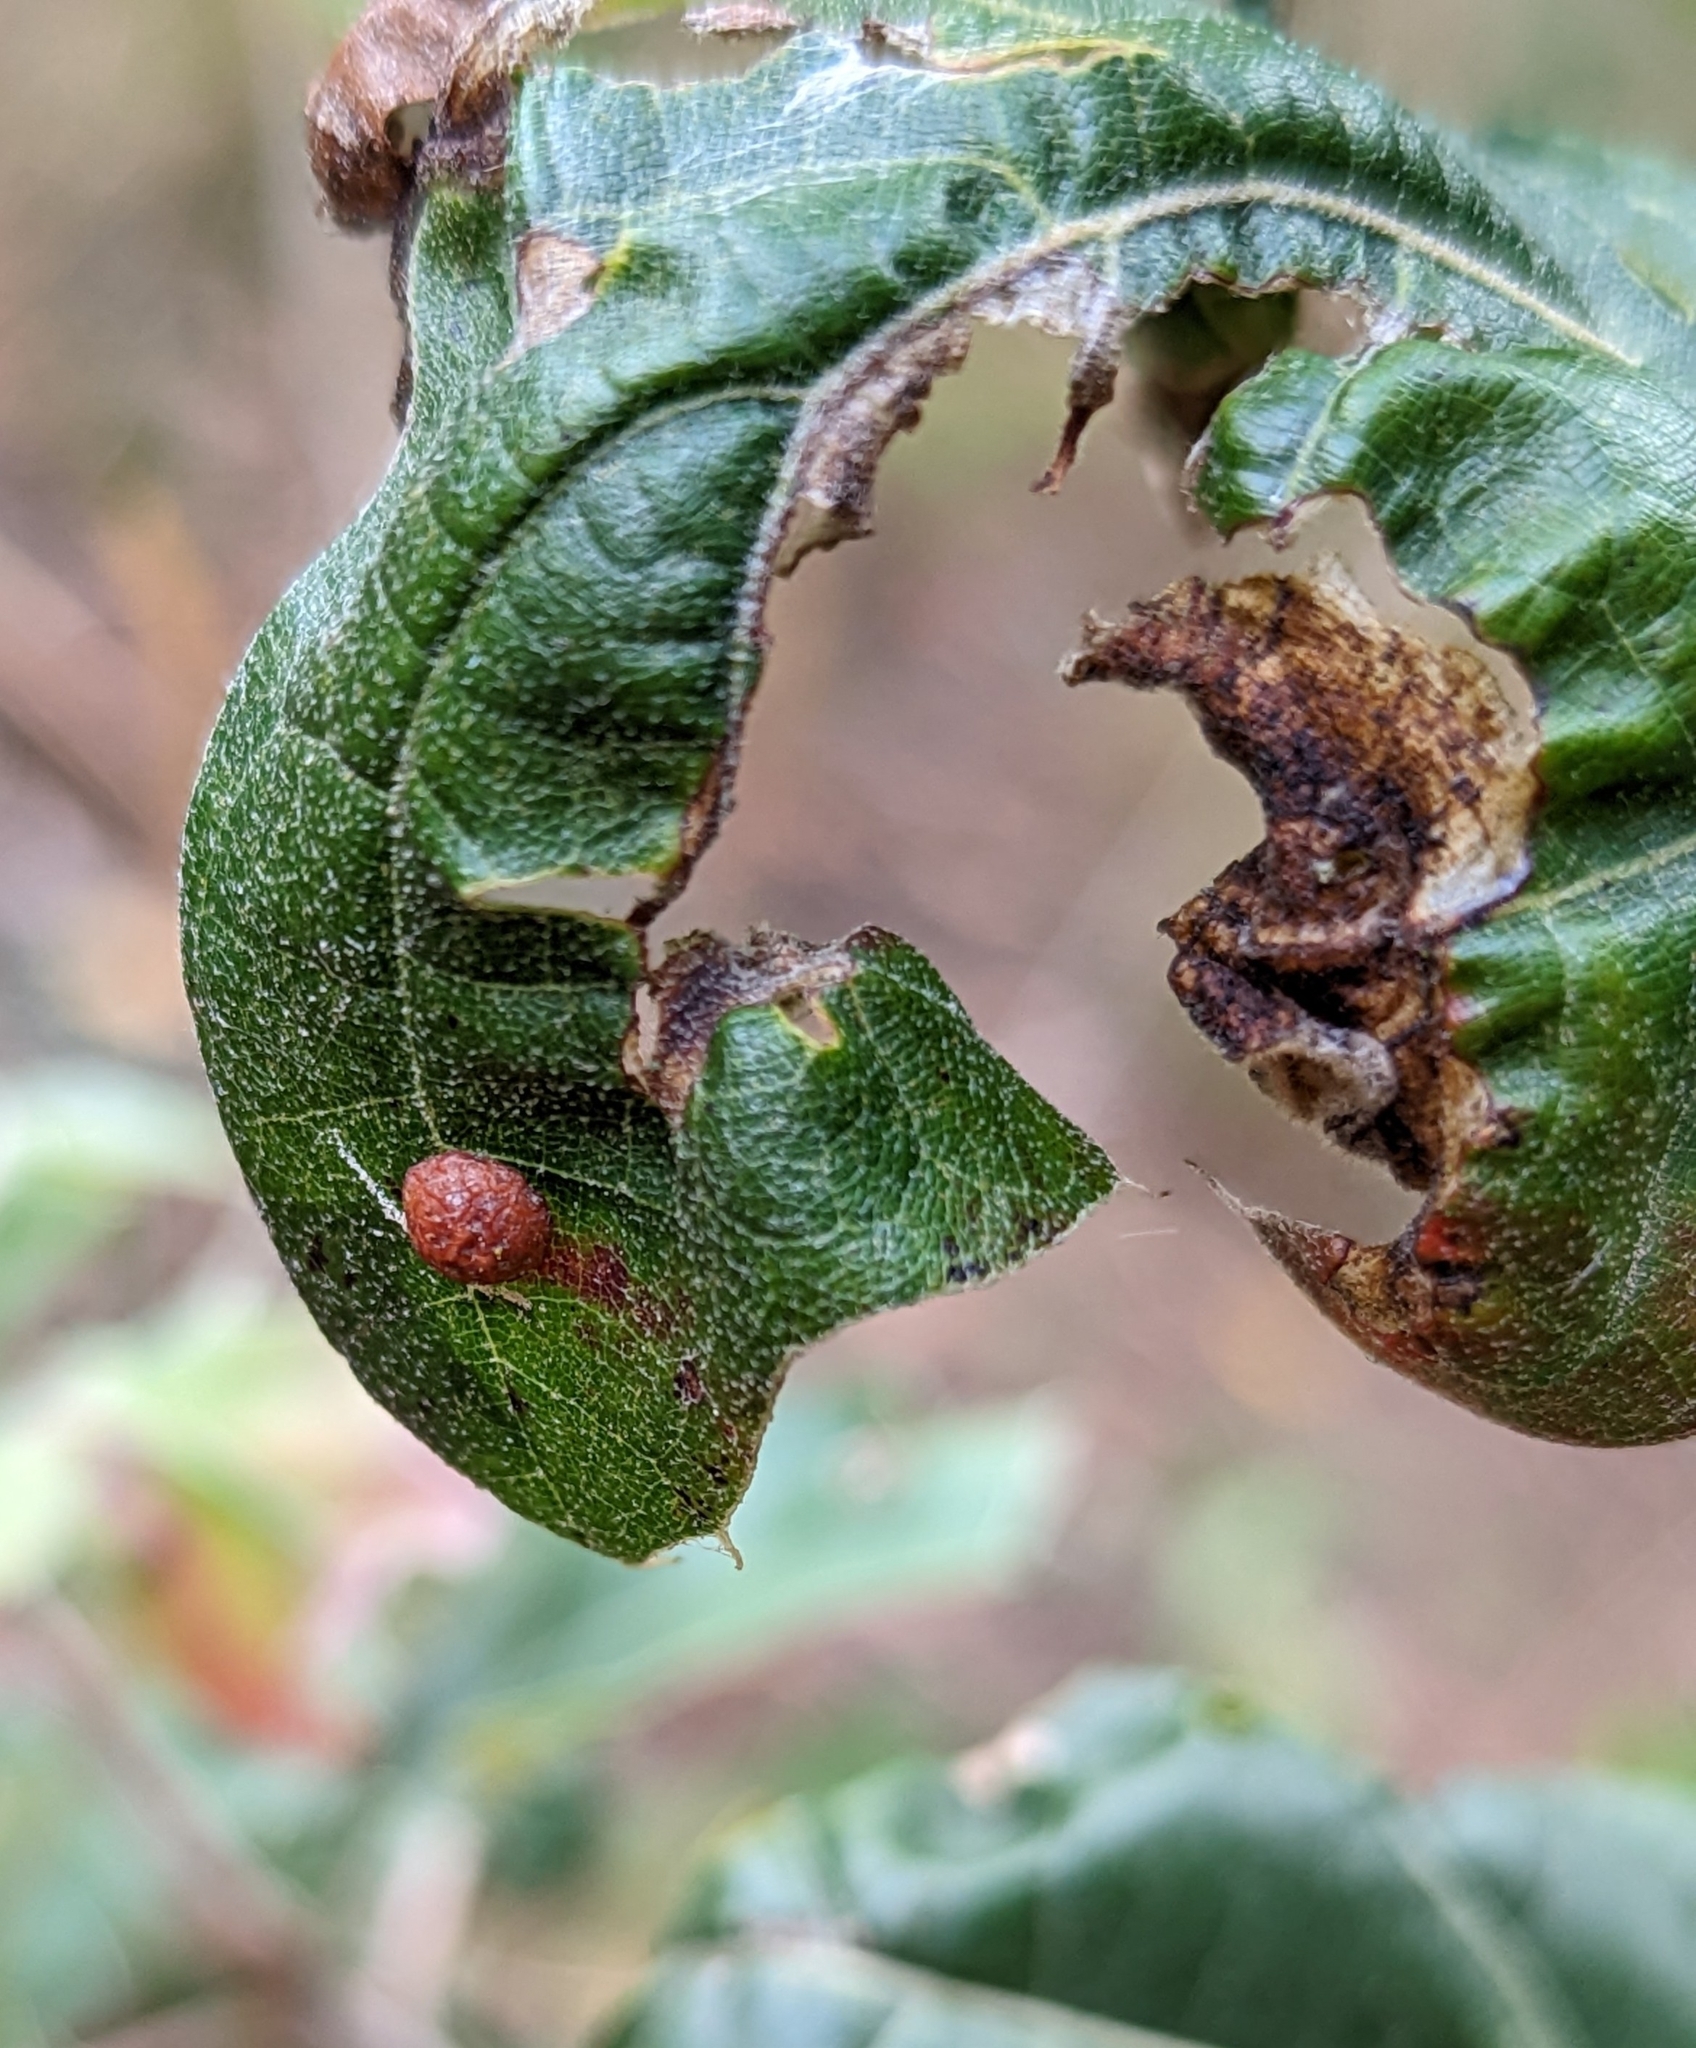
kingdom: Animalia
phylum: Arthropoda
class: Insecta
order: Diptera
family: Cecidomyiidae
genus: Polystepha
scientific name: Polystepha pilulae
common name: Oak leaf gall midge
